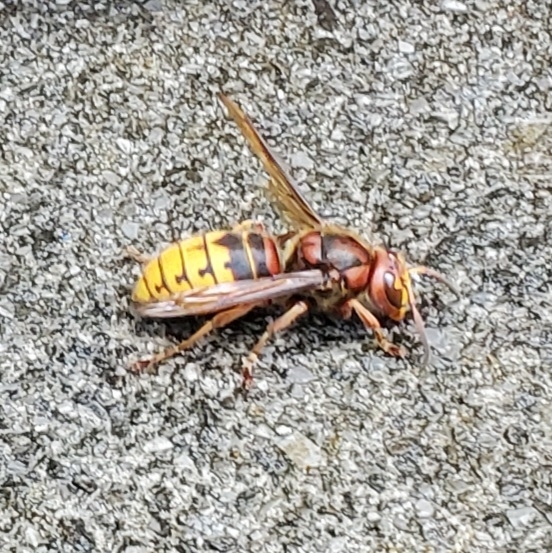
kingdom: Animalia
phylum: Arthropoda
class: Insecta
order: Hymenoptera
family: Vespidae
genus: Vespa
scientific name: Vespa crabro
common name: Hornet
